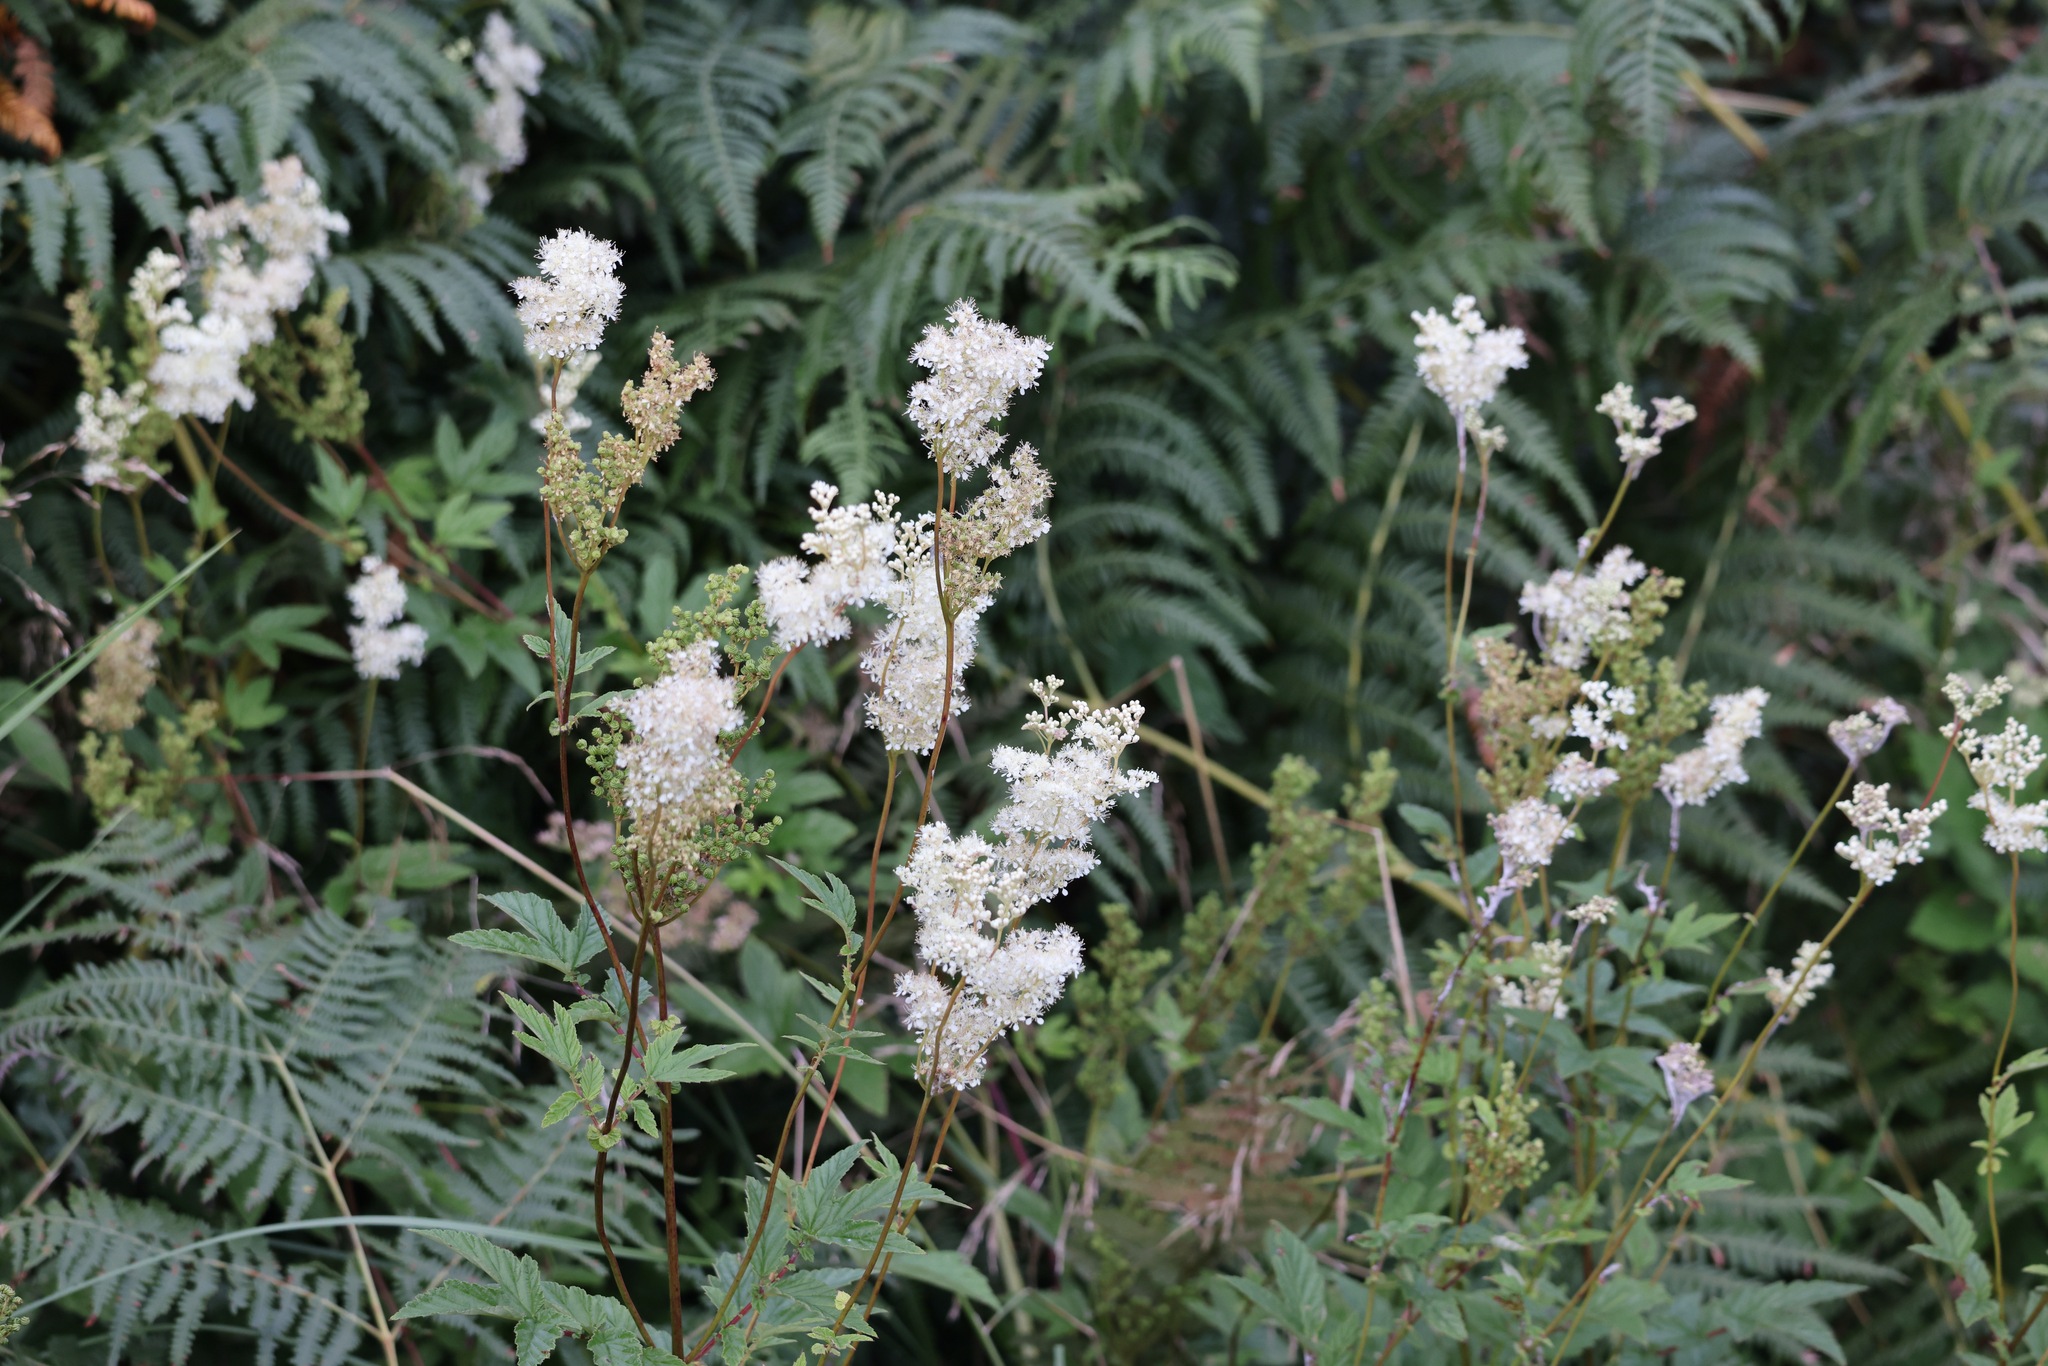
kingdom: Plantae
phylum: Tracheophyta
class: Magnoliopsida
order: Rosales
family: Rosaceae
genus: Filipendula
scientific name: Filipendula ulmaria
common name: Meadowsweet
